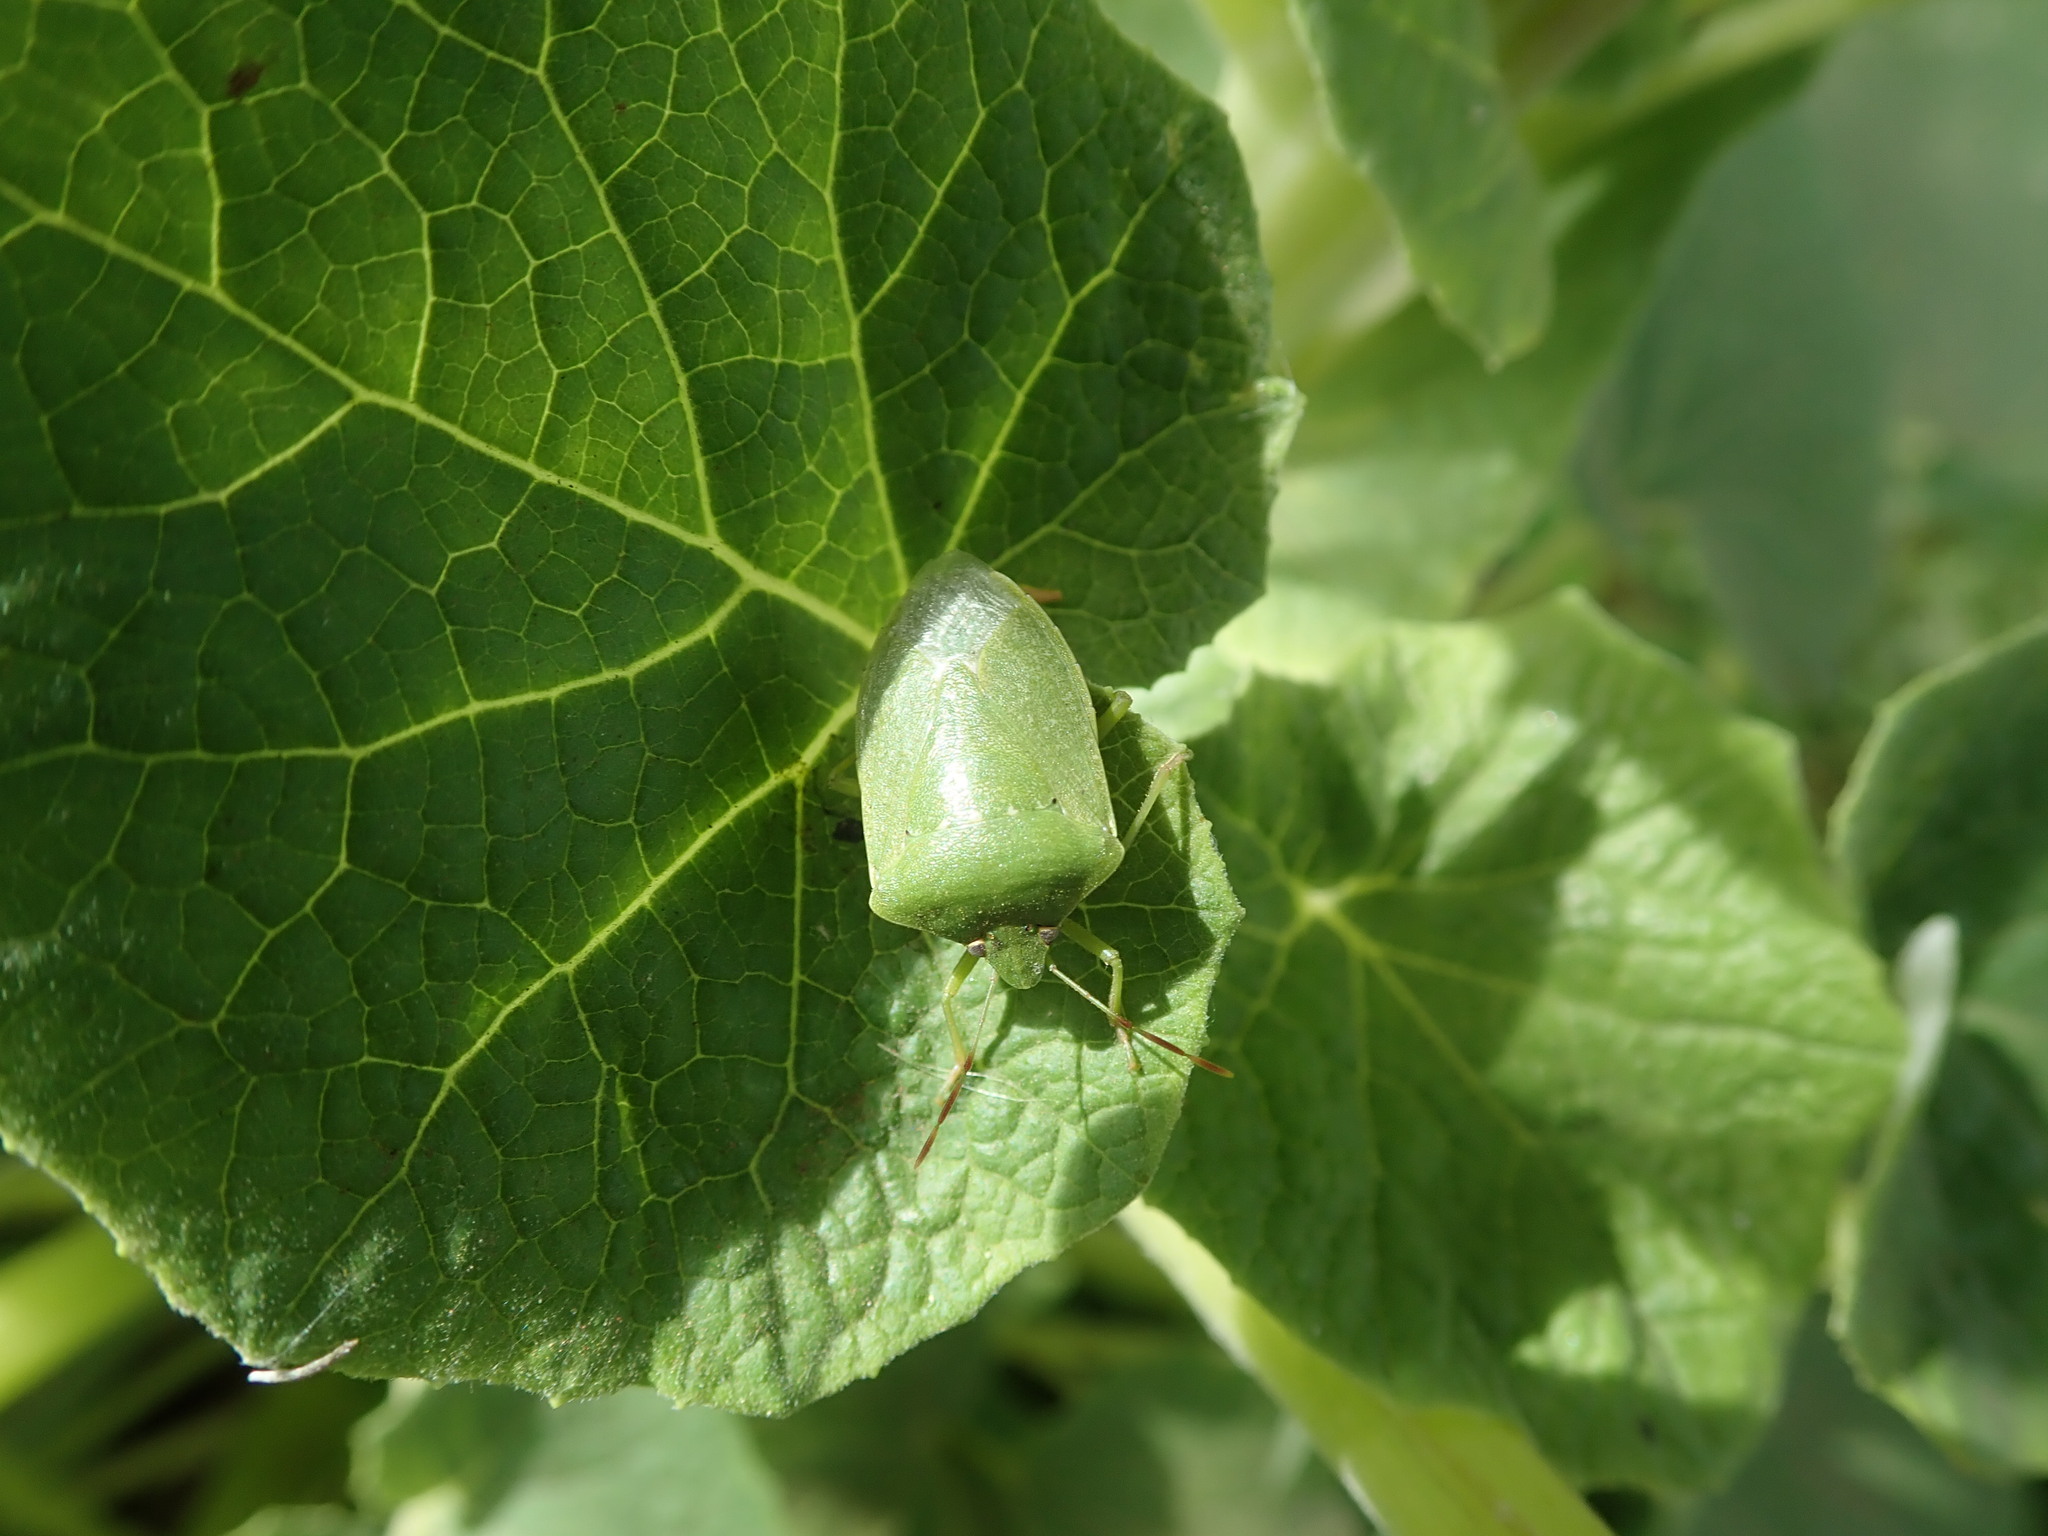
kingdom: Animalia
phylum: Arthropoda
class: Insecta
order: Hemiptera
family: Pentatomidae
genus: Nezara
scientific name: Nezara viridula
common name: Southern green stink bug
